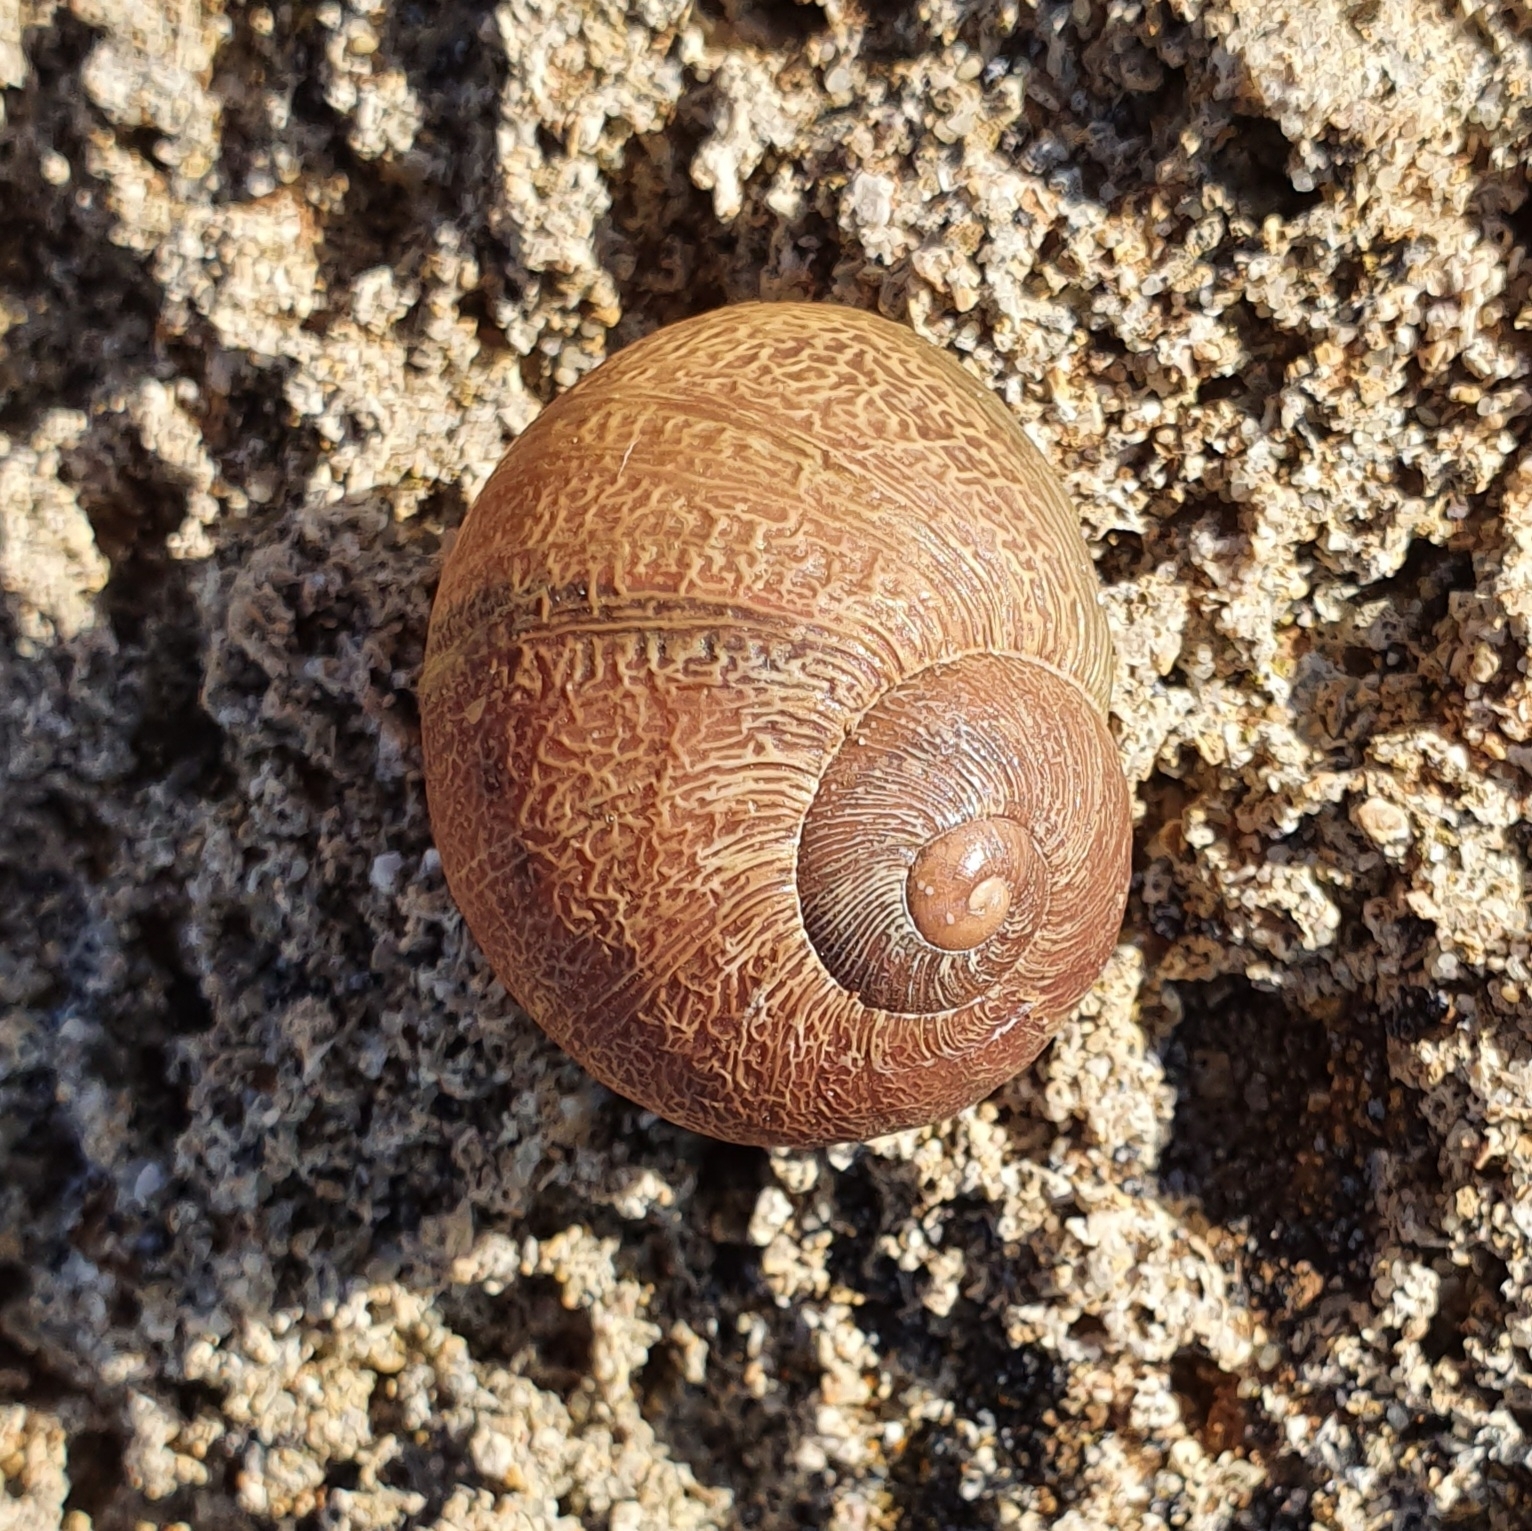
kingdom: Animalia
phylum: Mollusca
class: Gastropoda
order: Stylommatophora
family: Helicidae
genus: Cornu
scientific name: Cornu aspersum
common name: Brown garden snail
